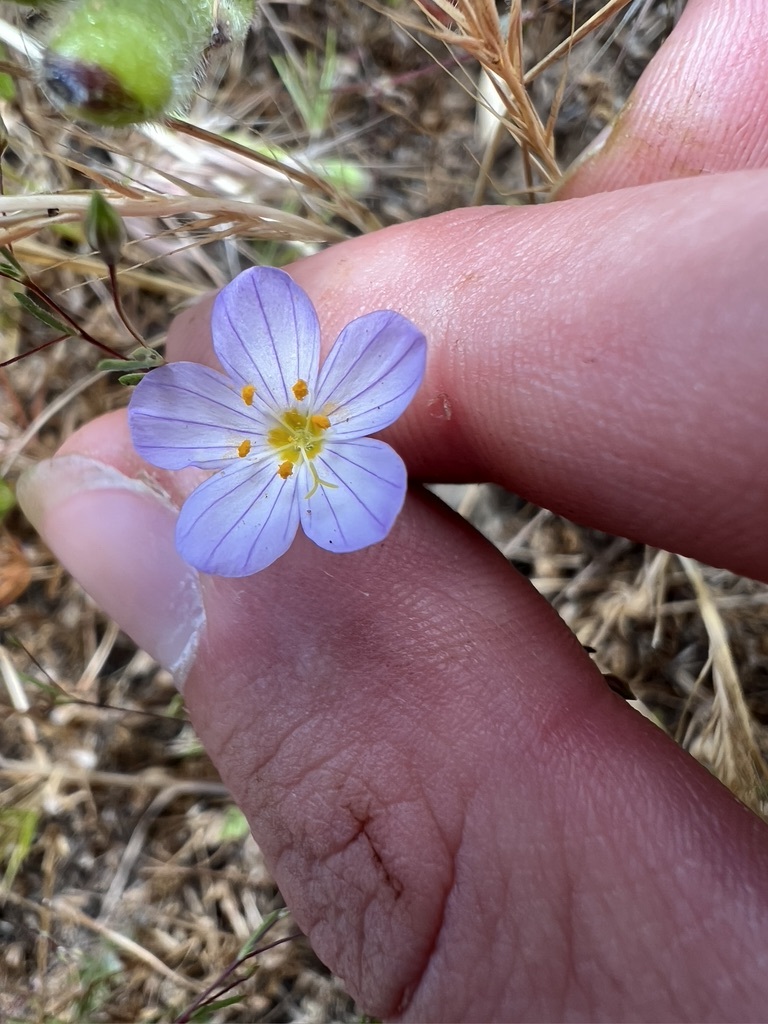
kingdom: Plantae
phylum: Tracheophyta
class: Magnoliopsida
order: Ericales
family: Polemoniaceae
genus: Leptosiphon
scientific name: Leptosiphon liniflorus
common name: Narrowflower flaxflower
